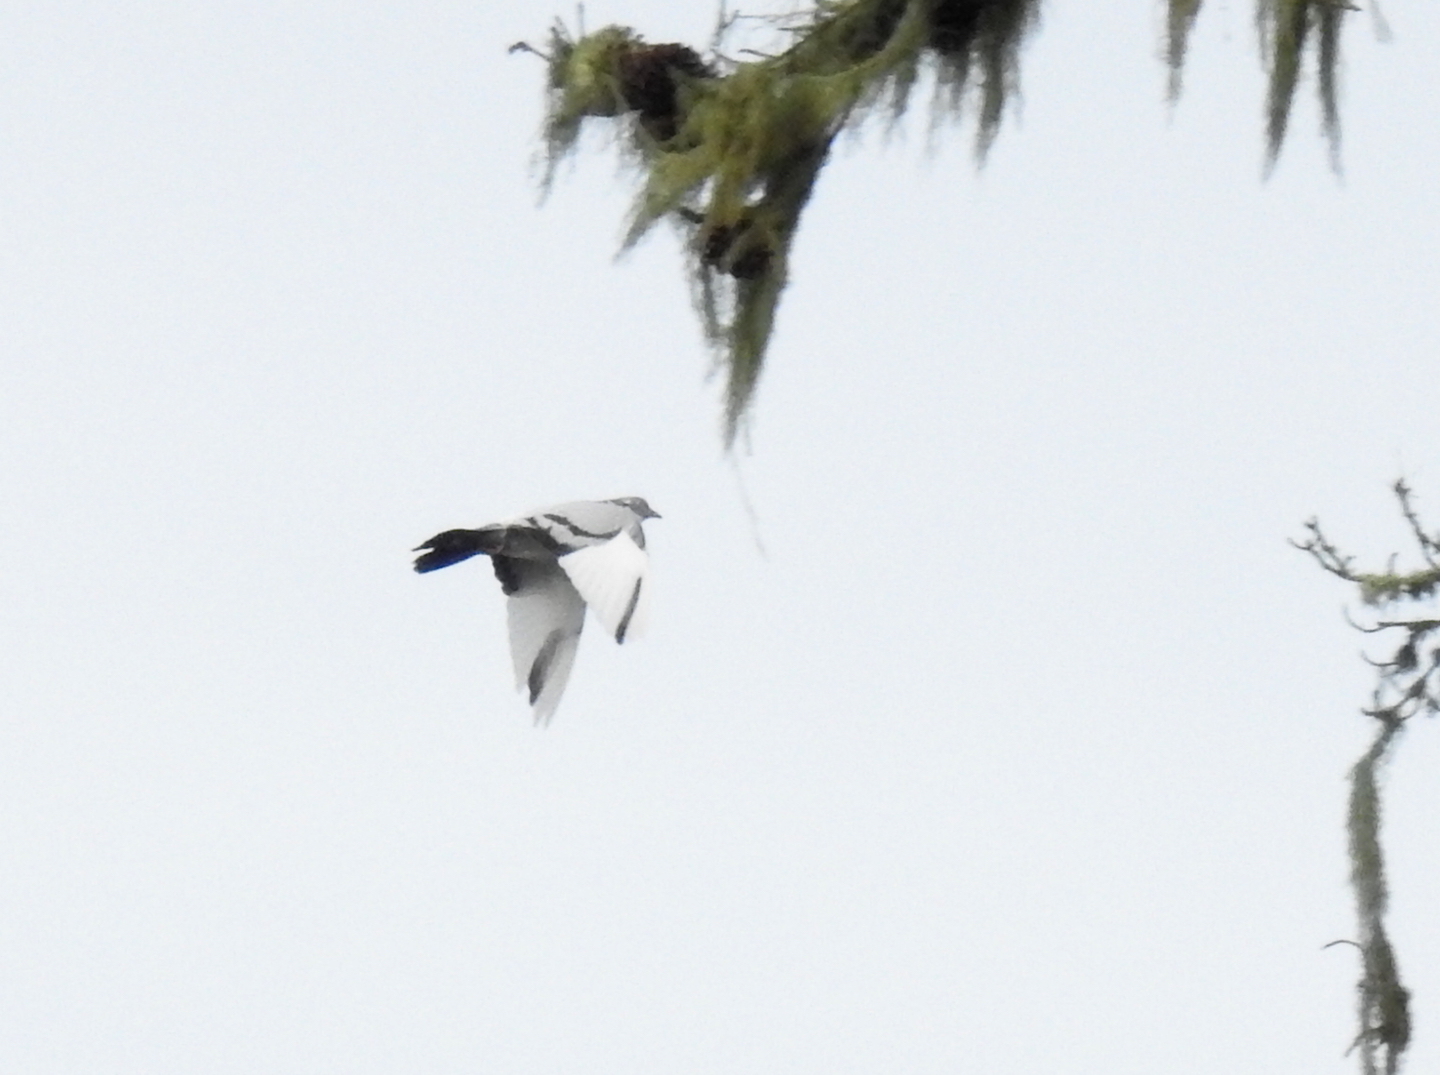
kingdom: Animalia
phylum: Chordata
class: Aves
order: Columbiformes
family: Columbidae
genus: Columba
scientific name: Columba livia
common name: Rock pigeon
